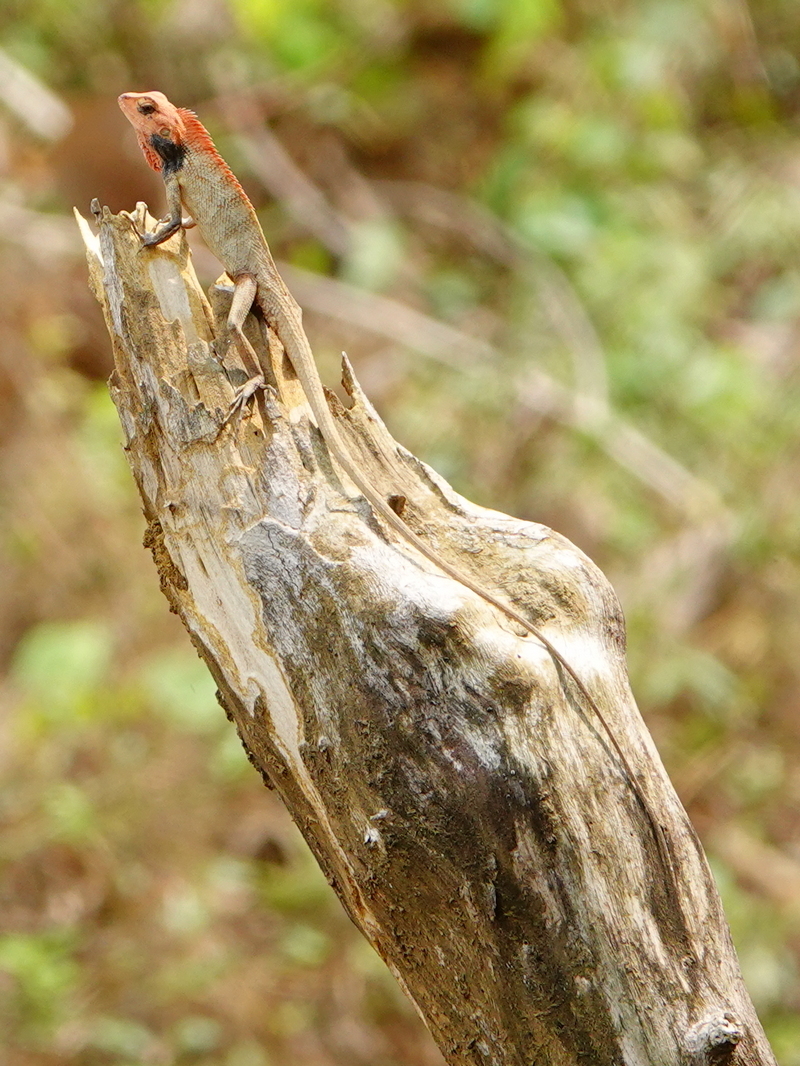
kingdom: Animalia
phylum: Chordata
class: Squamata
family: Agamidae
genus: Calotes
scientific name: Calotes versicolor
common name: Oriental garden lizard
